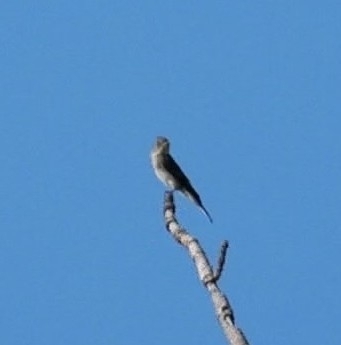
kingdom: Animalia
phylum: Chordata
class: Aves
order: Passeriformes
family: Tyrannidae
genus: Contopus
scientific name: Contopus cooperi
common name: Olive-sided flycatcher
